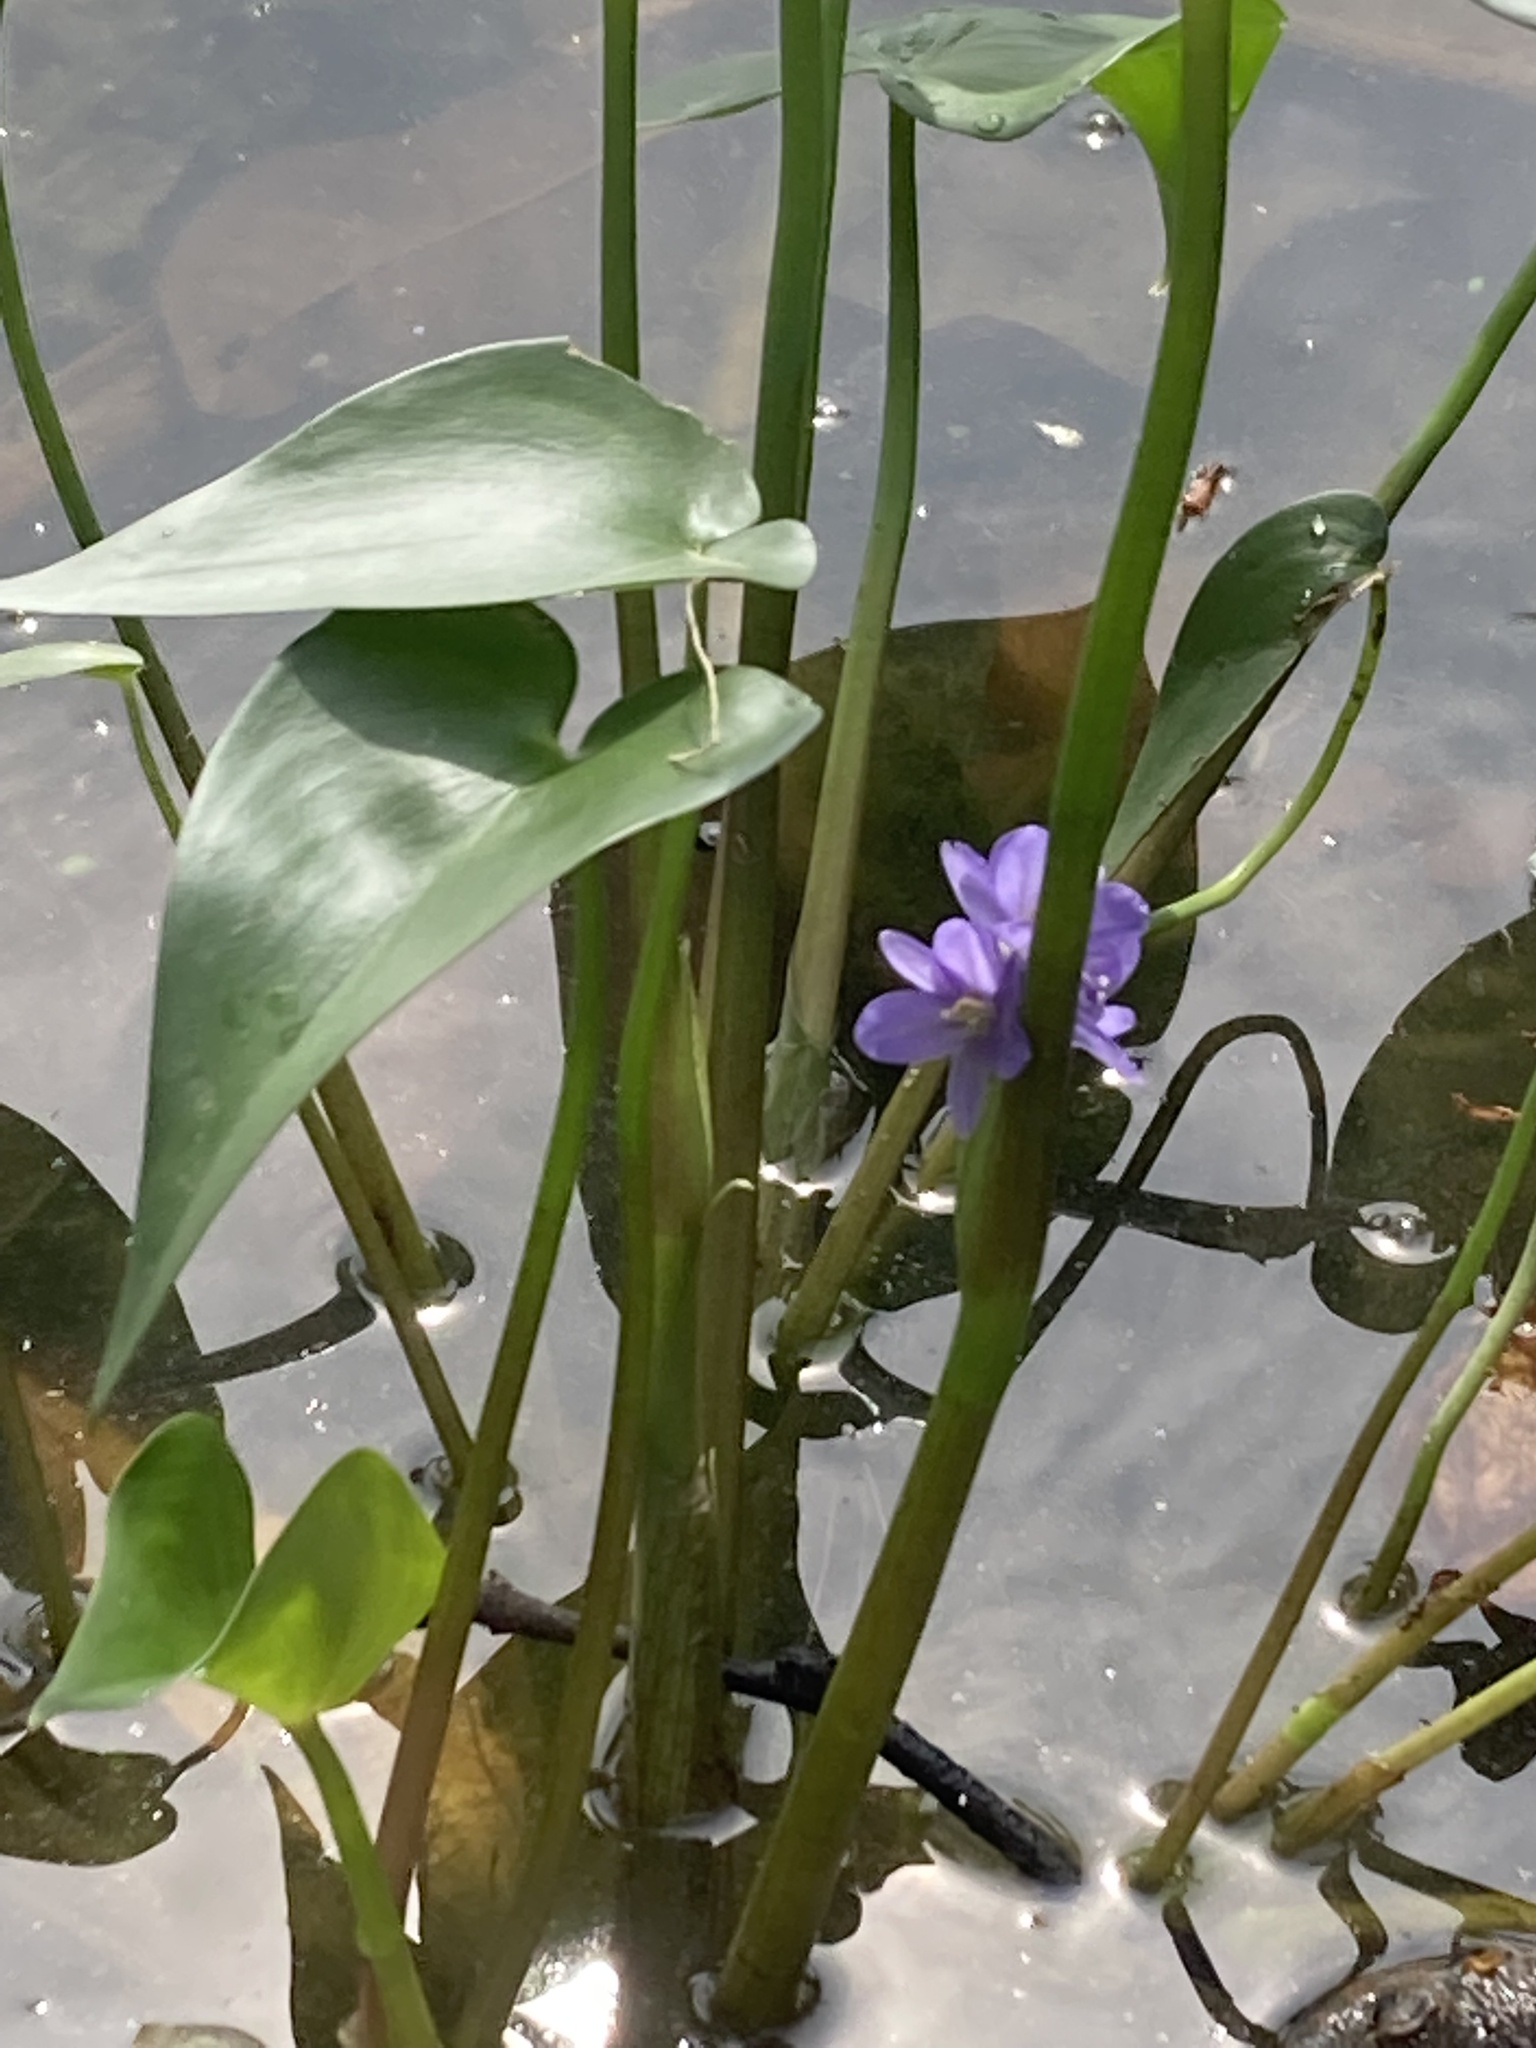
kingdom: Plantae
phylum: Tracheophyta
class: Liliopsida
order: Commelinales
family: Pontederiaceae
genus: Pontederia
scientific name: Pontederia vaginalis
